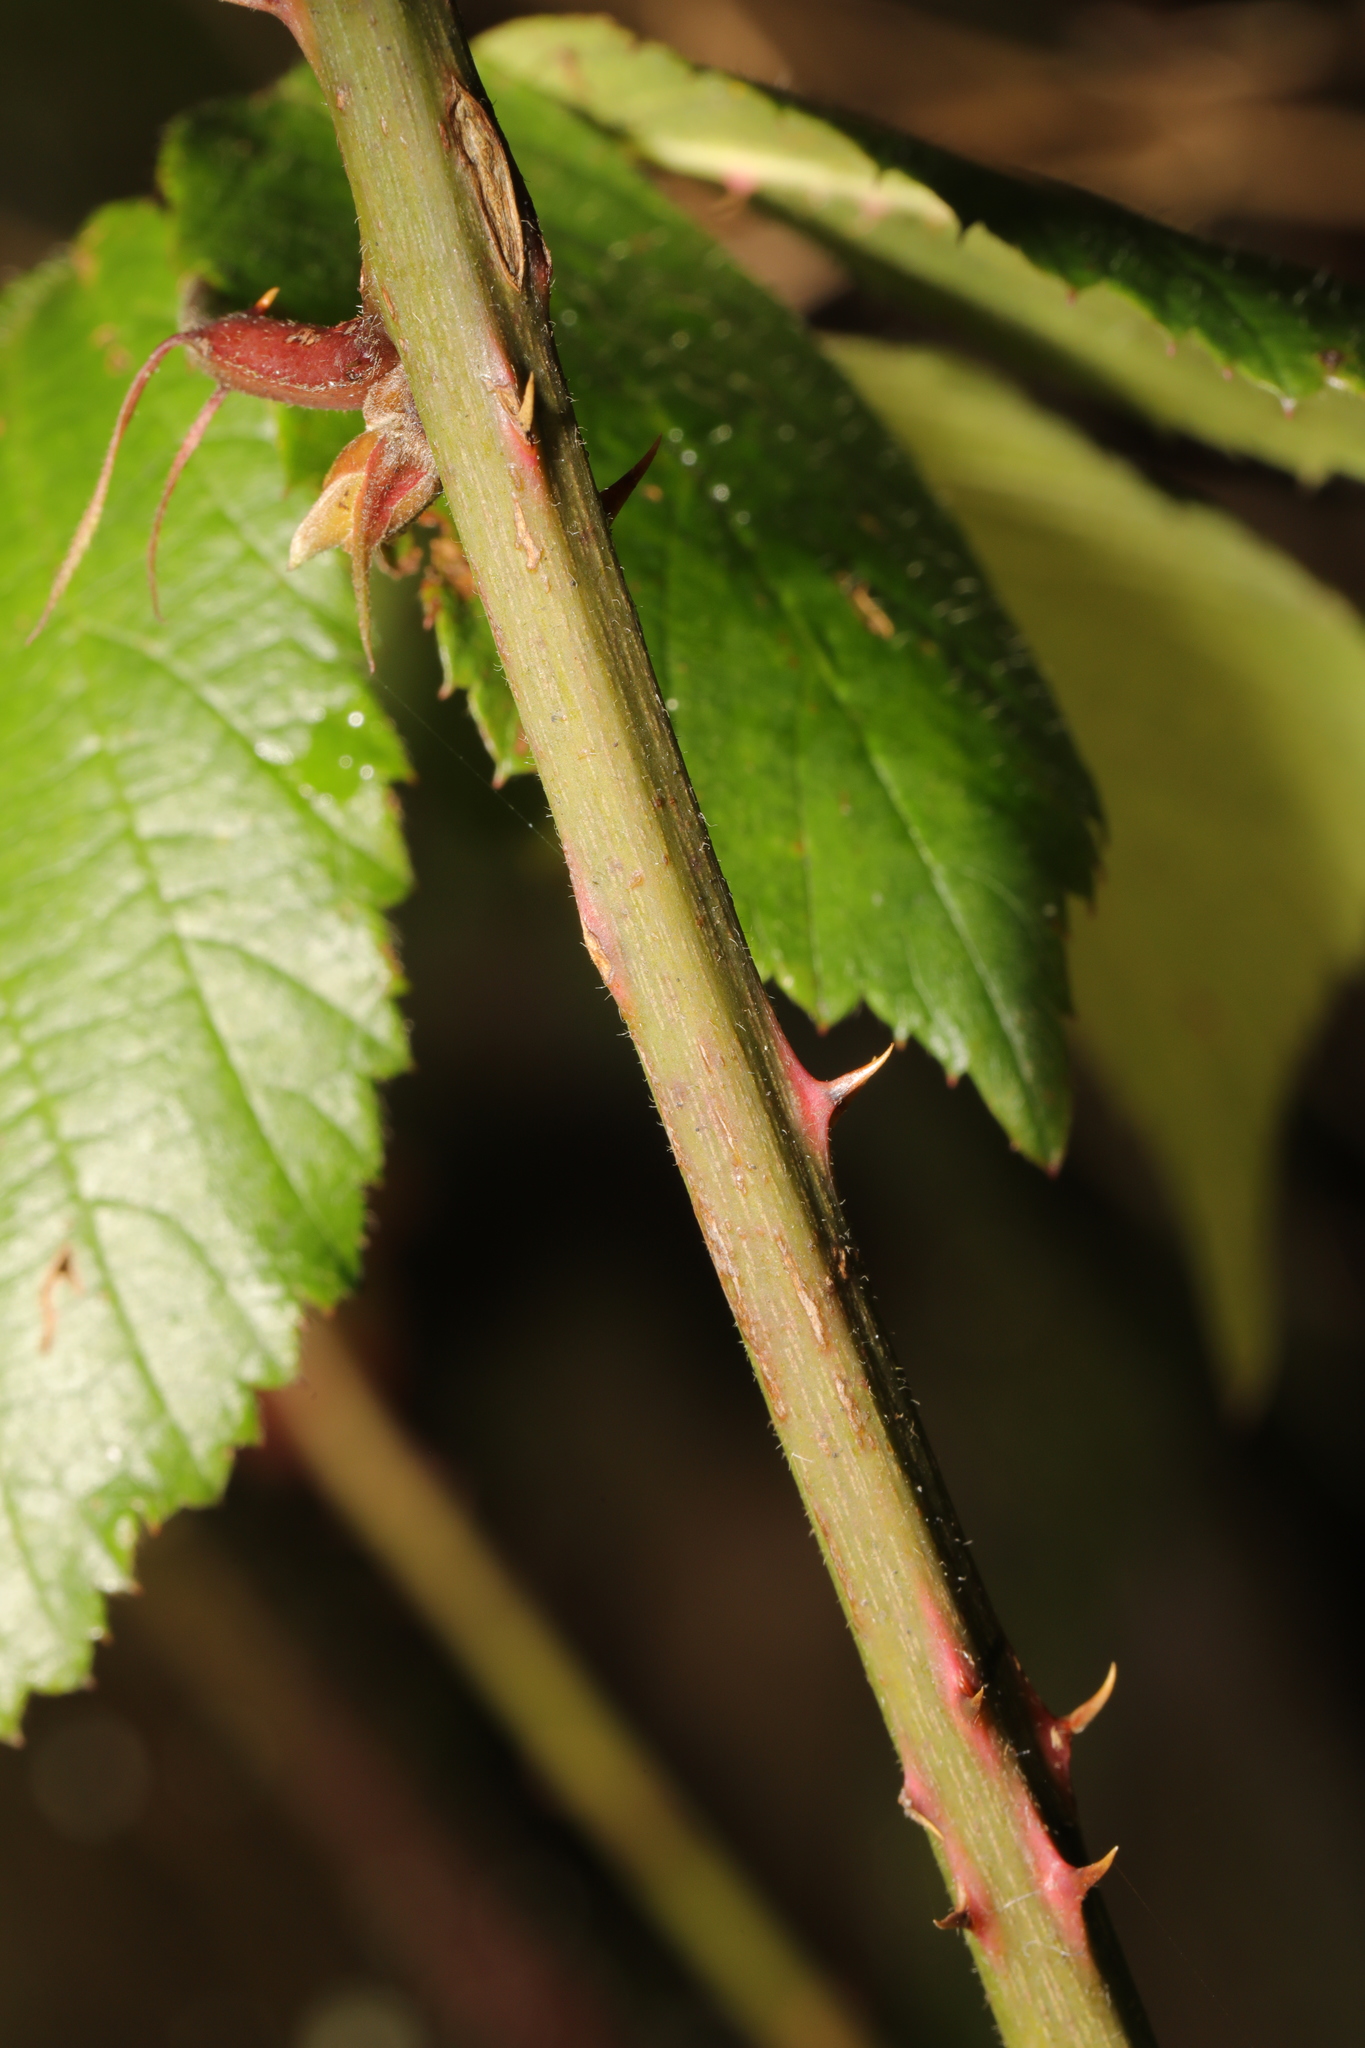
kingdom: Plantae
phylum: Tracheophyta
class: Magnoliopsida
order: Rosales
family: Rosaceae
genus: Rubus
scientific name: Rubus armeniacus
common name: Himalayan blackberry
